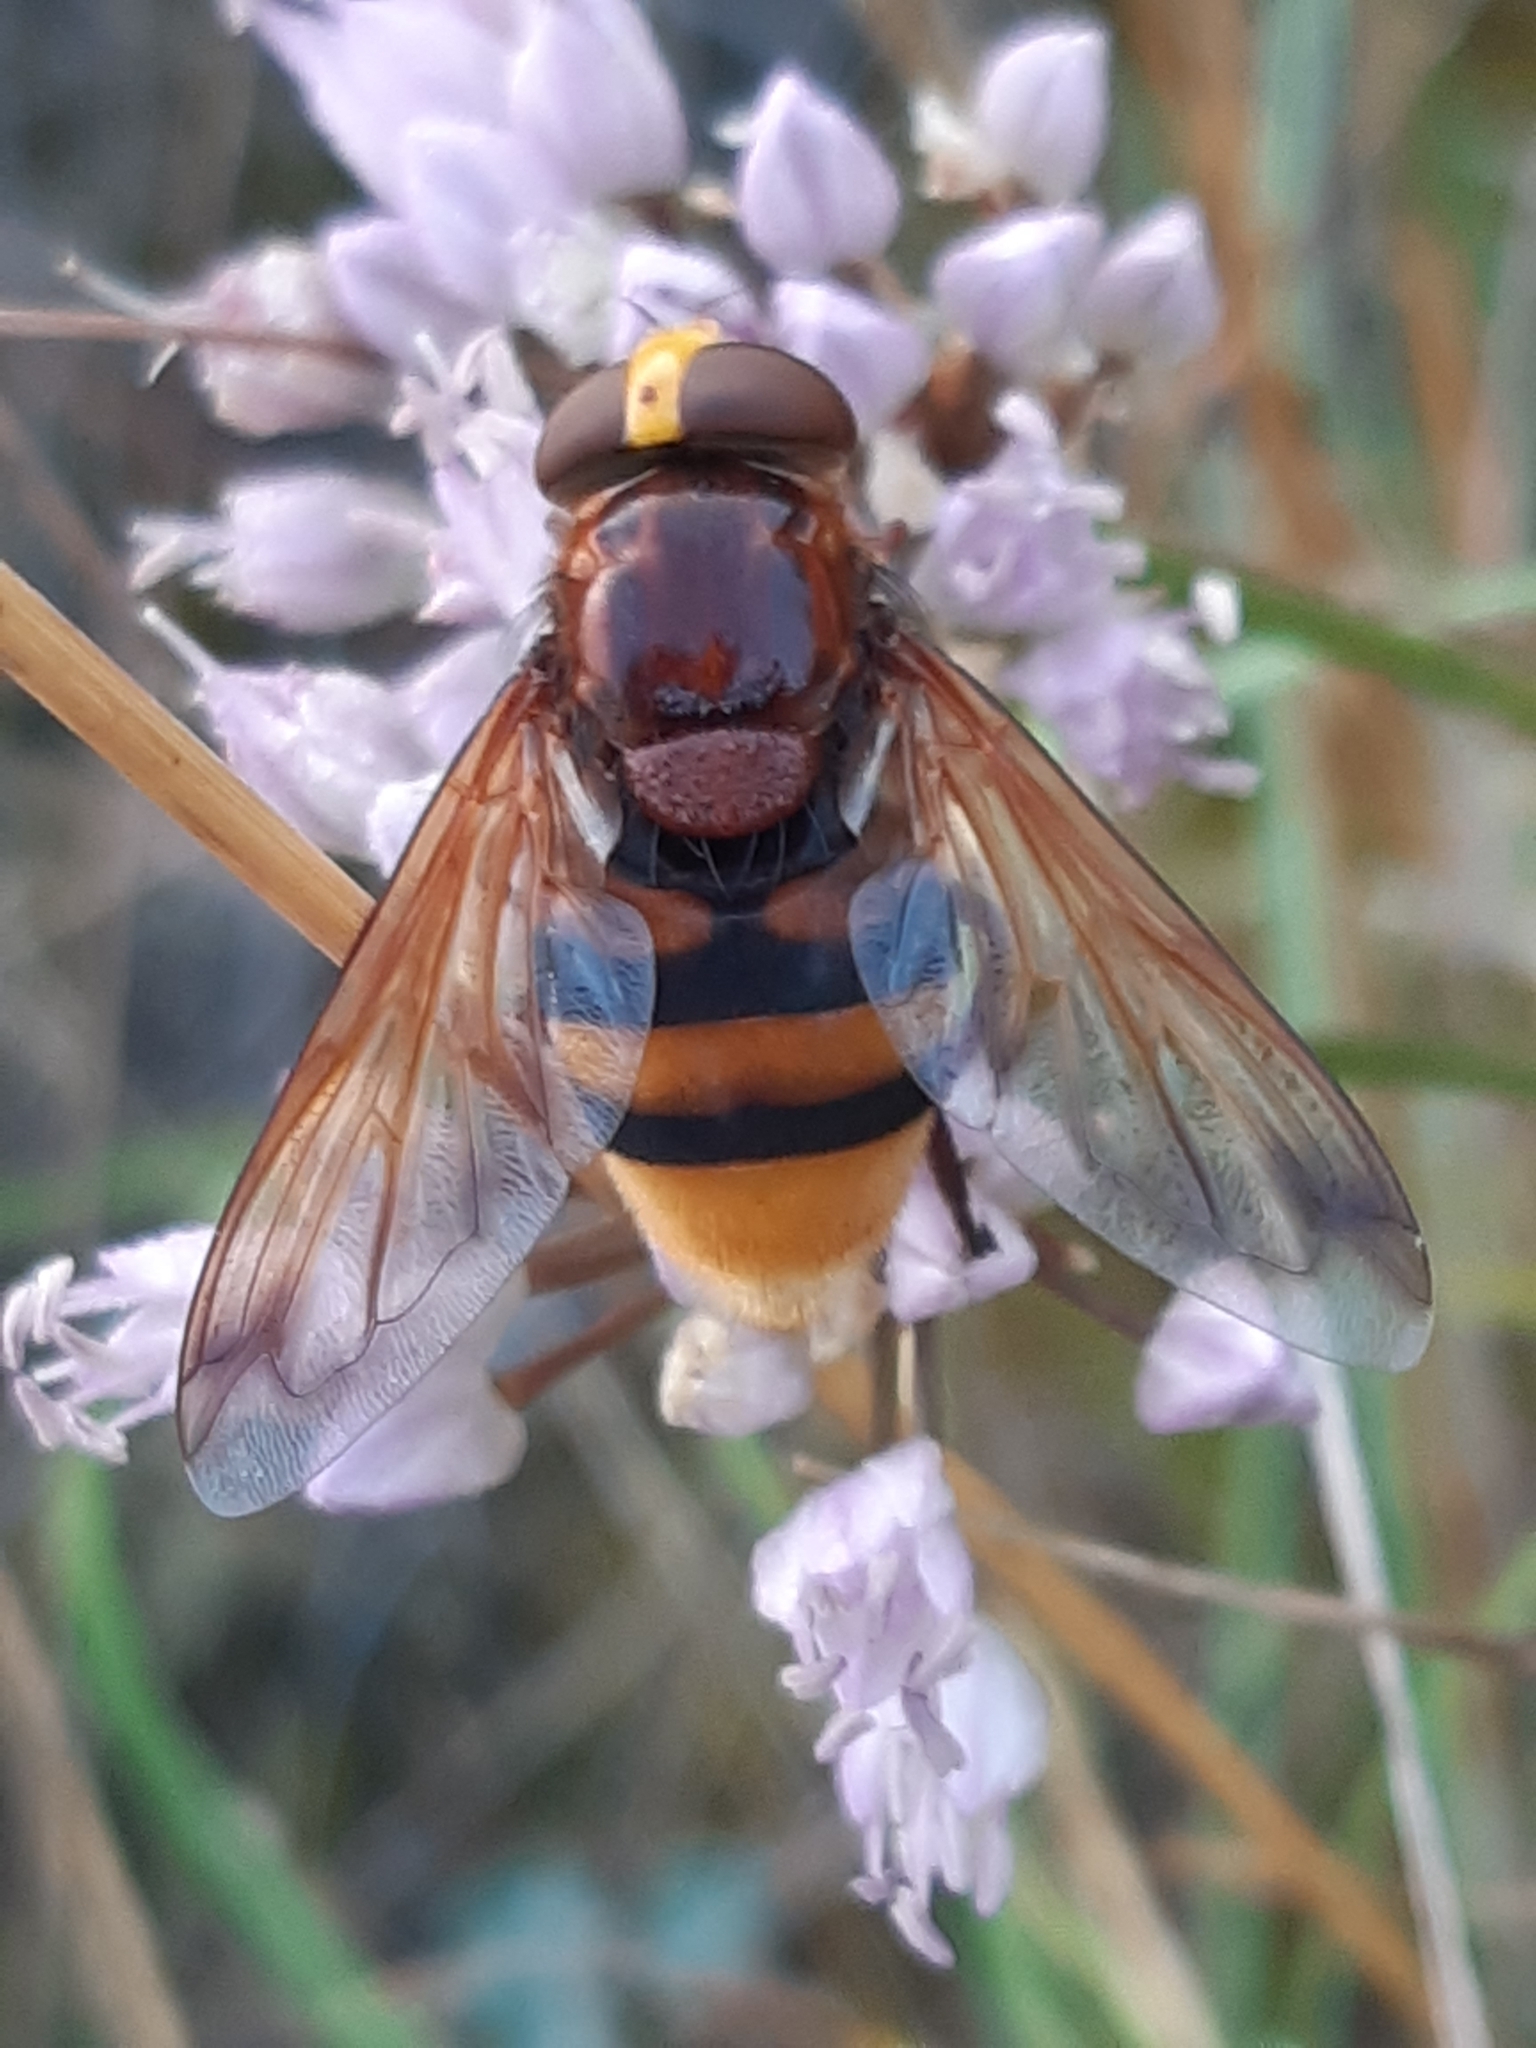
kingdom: Animalia
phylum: Arthropoda
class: Insecta
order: Diptera
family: Syrphidae
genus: Volucella
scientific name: Volucella zonaria
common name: Hornet hoverfly
